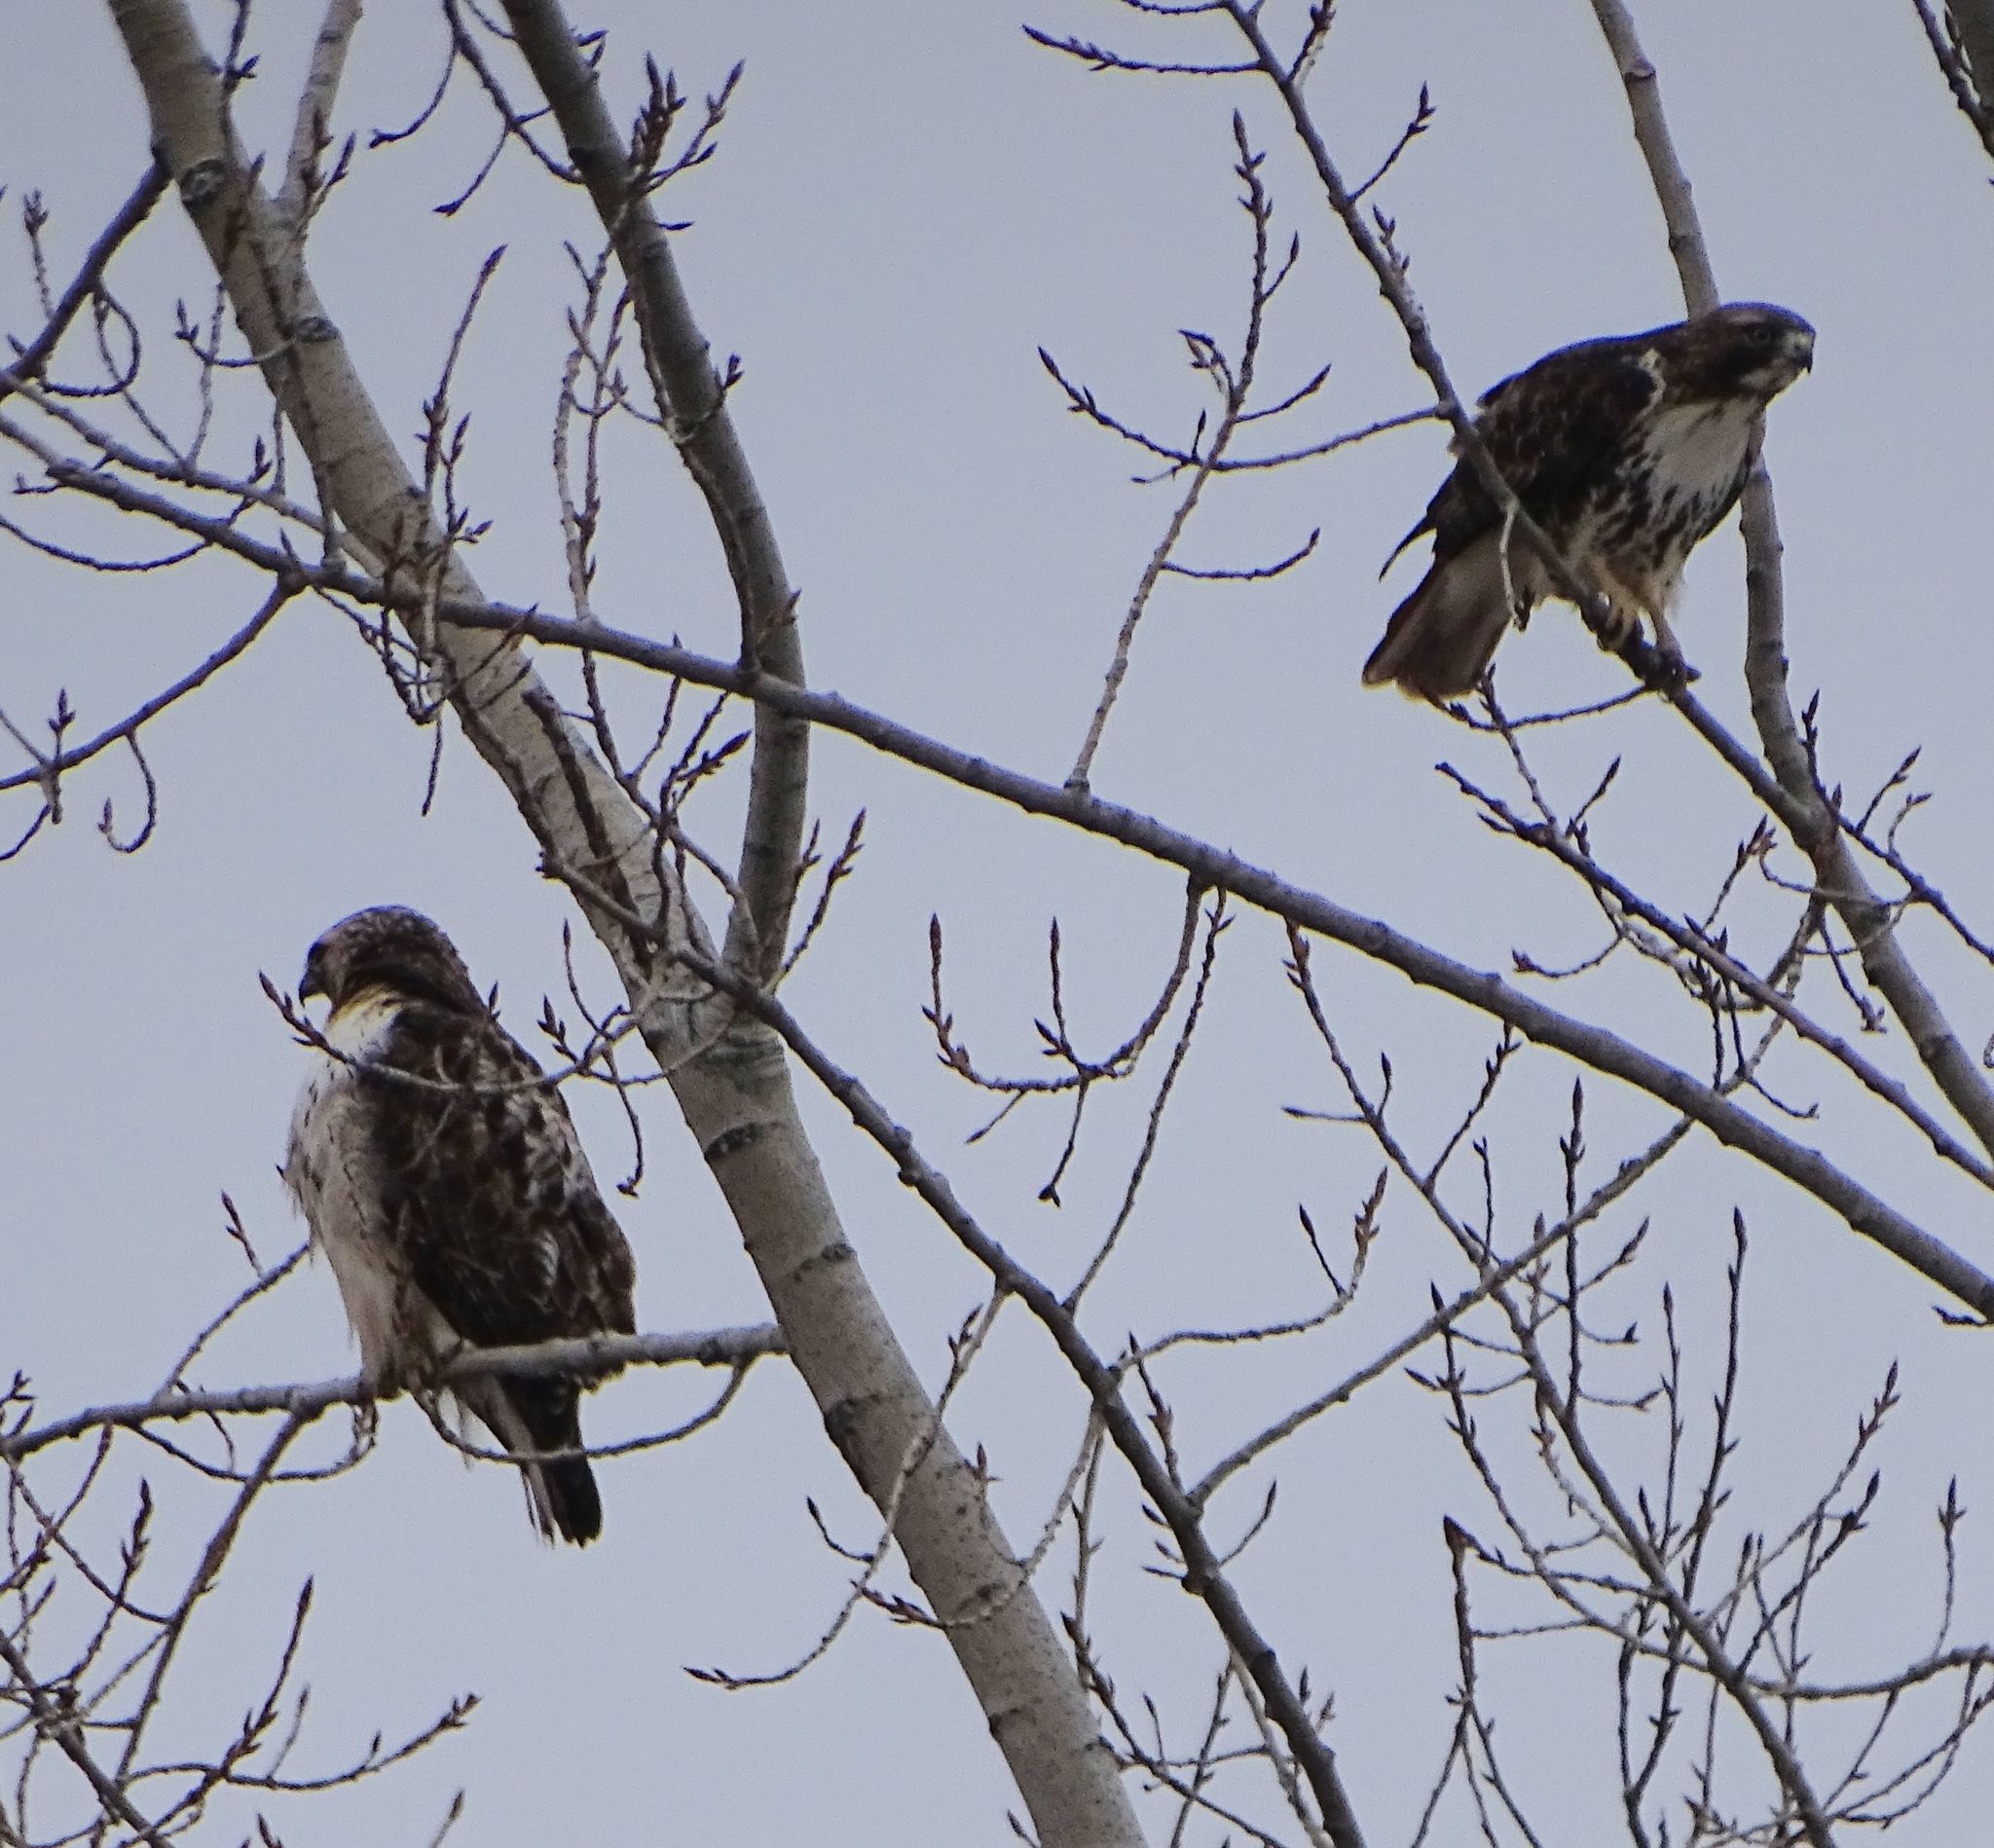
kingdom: Animalia
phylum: Chordata
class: Aves
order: Accipitriformes
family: Accipitridae
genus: Buteo
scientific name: Buteo jamaicensis
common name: Red-tailed hawk
